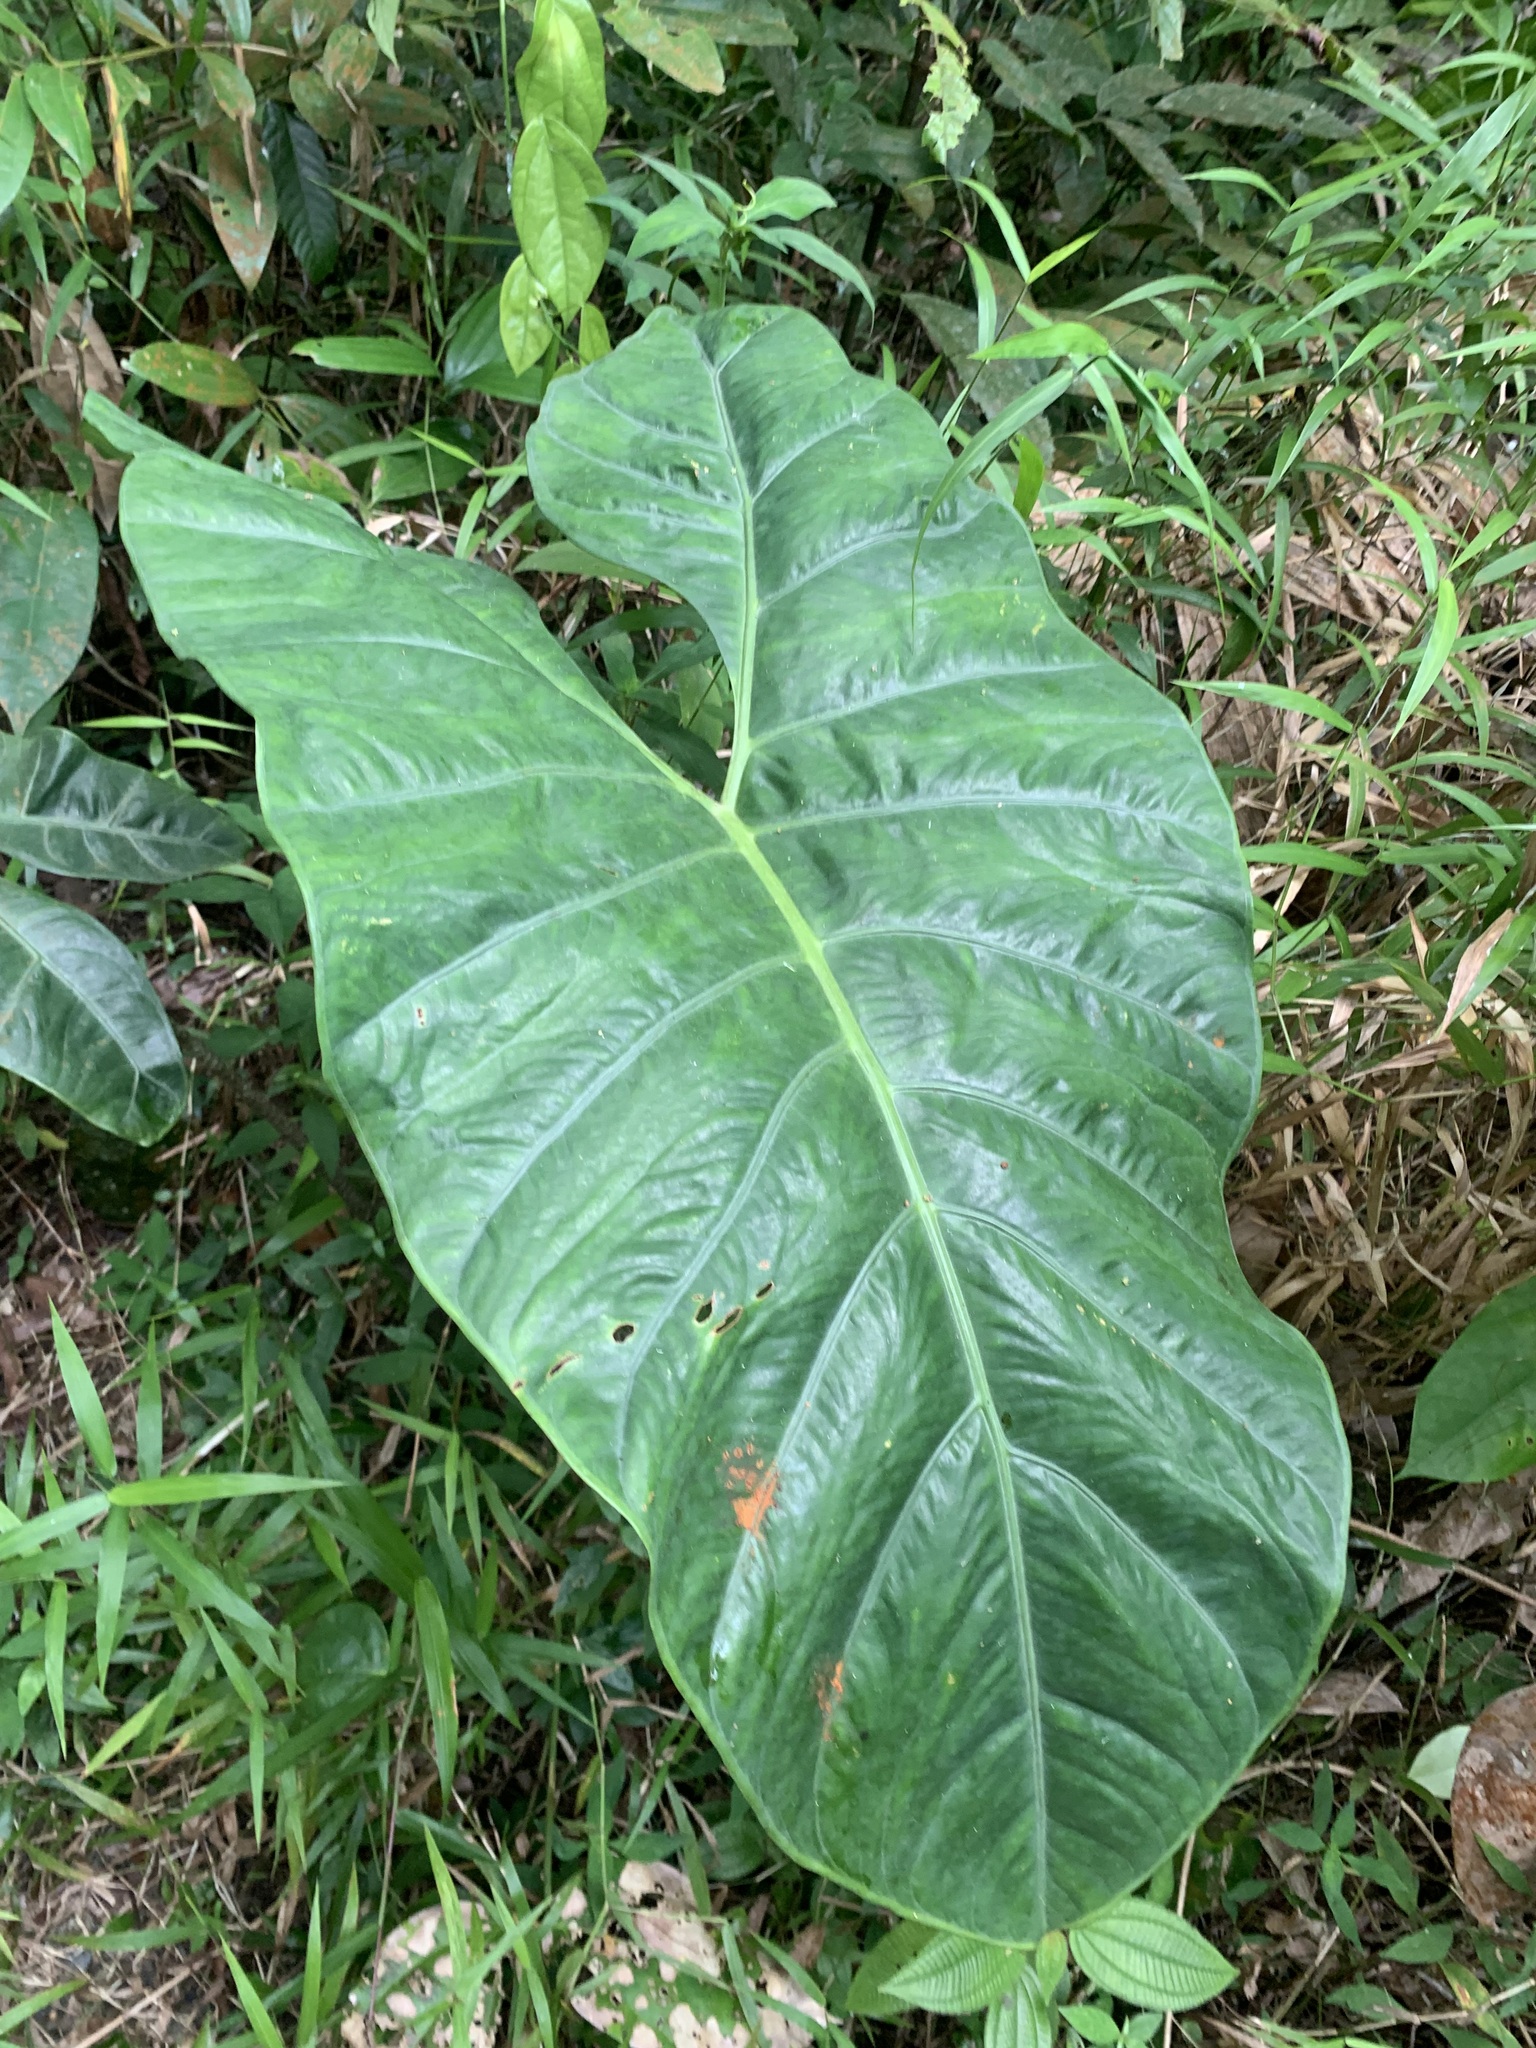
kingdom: Plantae
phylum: Tracheophyta
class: Liliopsida
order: Alismatales
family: Araceae
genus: Alocasia
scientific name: Alocasia longiloba
